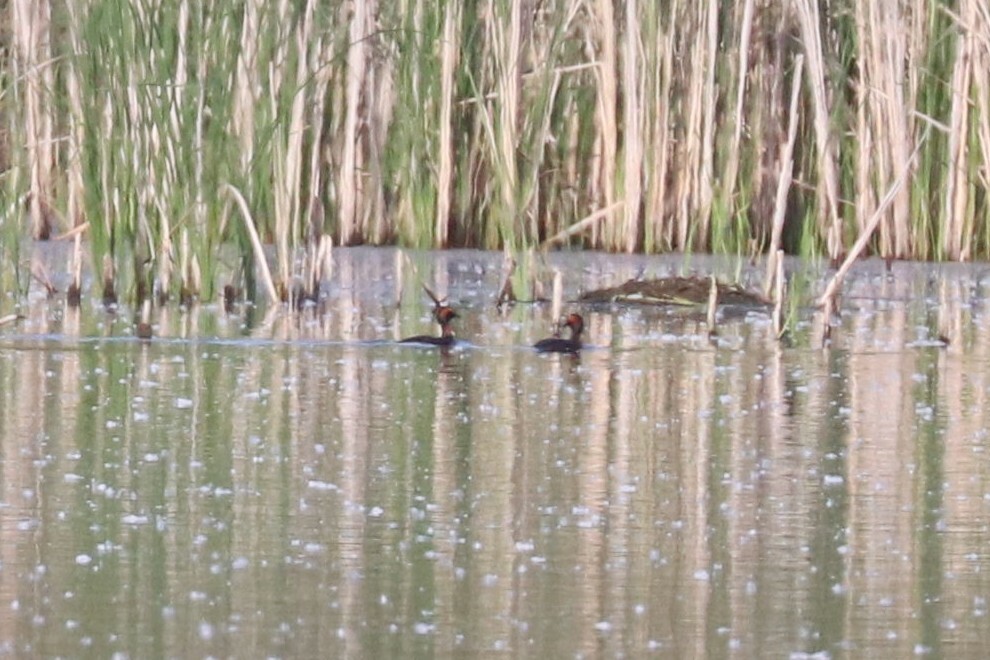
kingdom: Animalia
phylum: Chordata
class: Aves
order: Podicipediformes
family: Podicipedidae
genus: Podiceps
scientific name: Podiceps auritus
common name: Horned grebe
